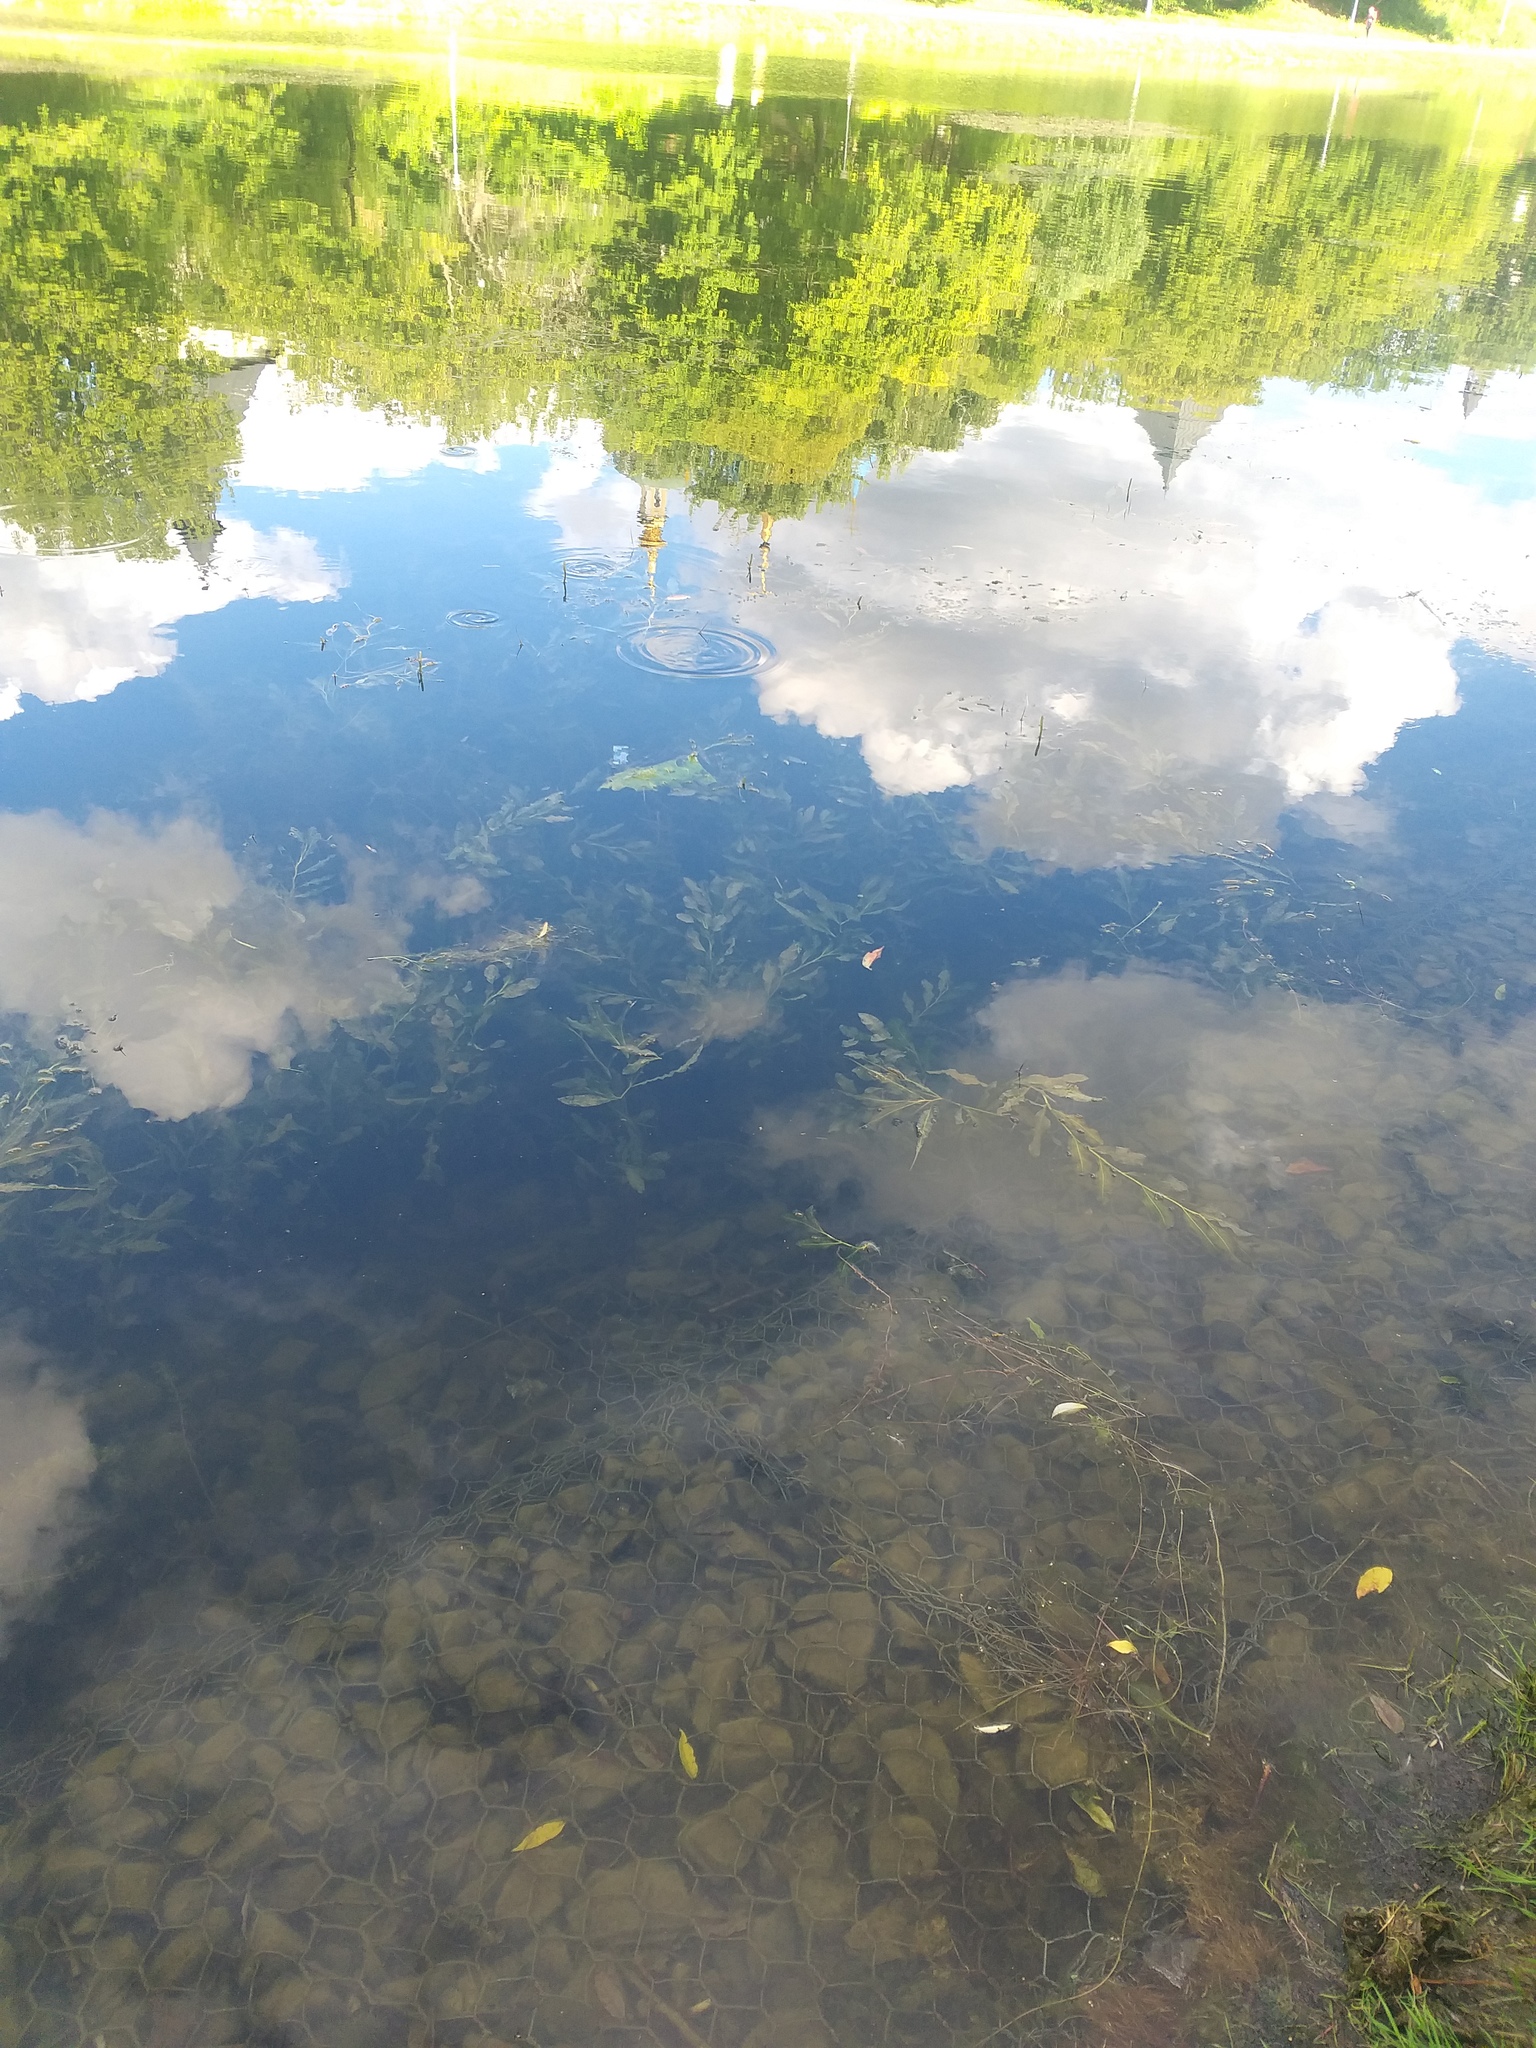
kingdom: Plantae
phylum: Tracheophyta
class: Liliopsida
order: Alismatales
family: Potamogetonaceae
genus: Potamogeton
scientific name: Potamogeton lucens
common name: Shining pondweed
